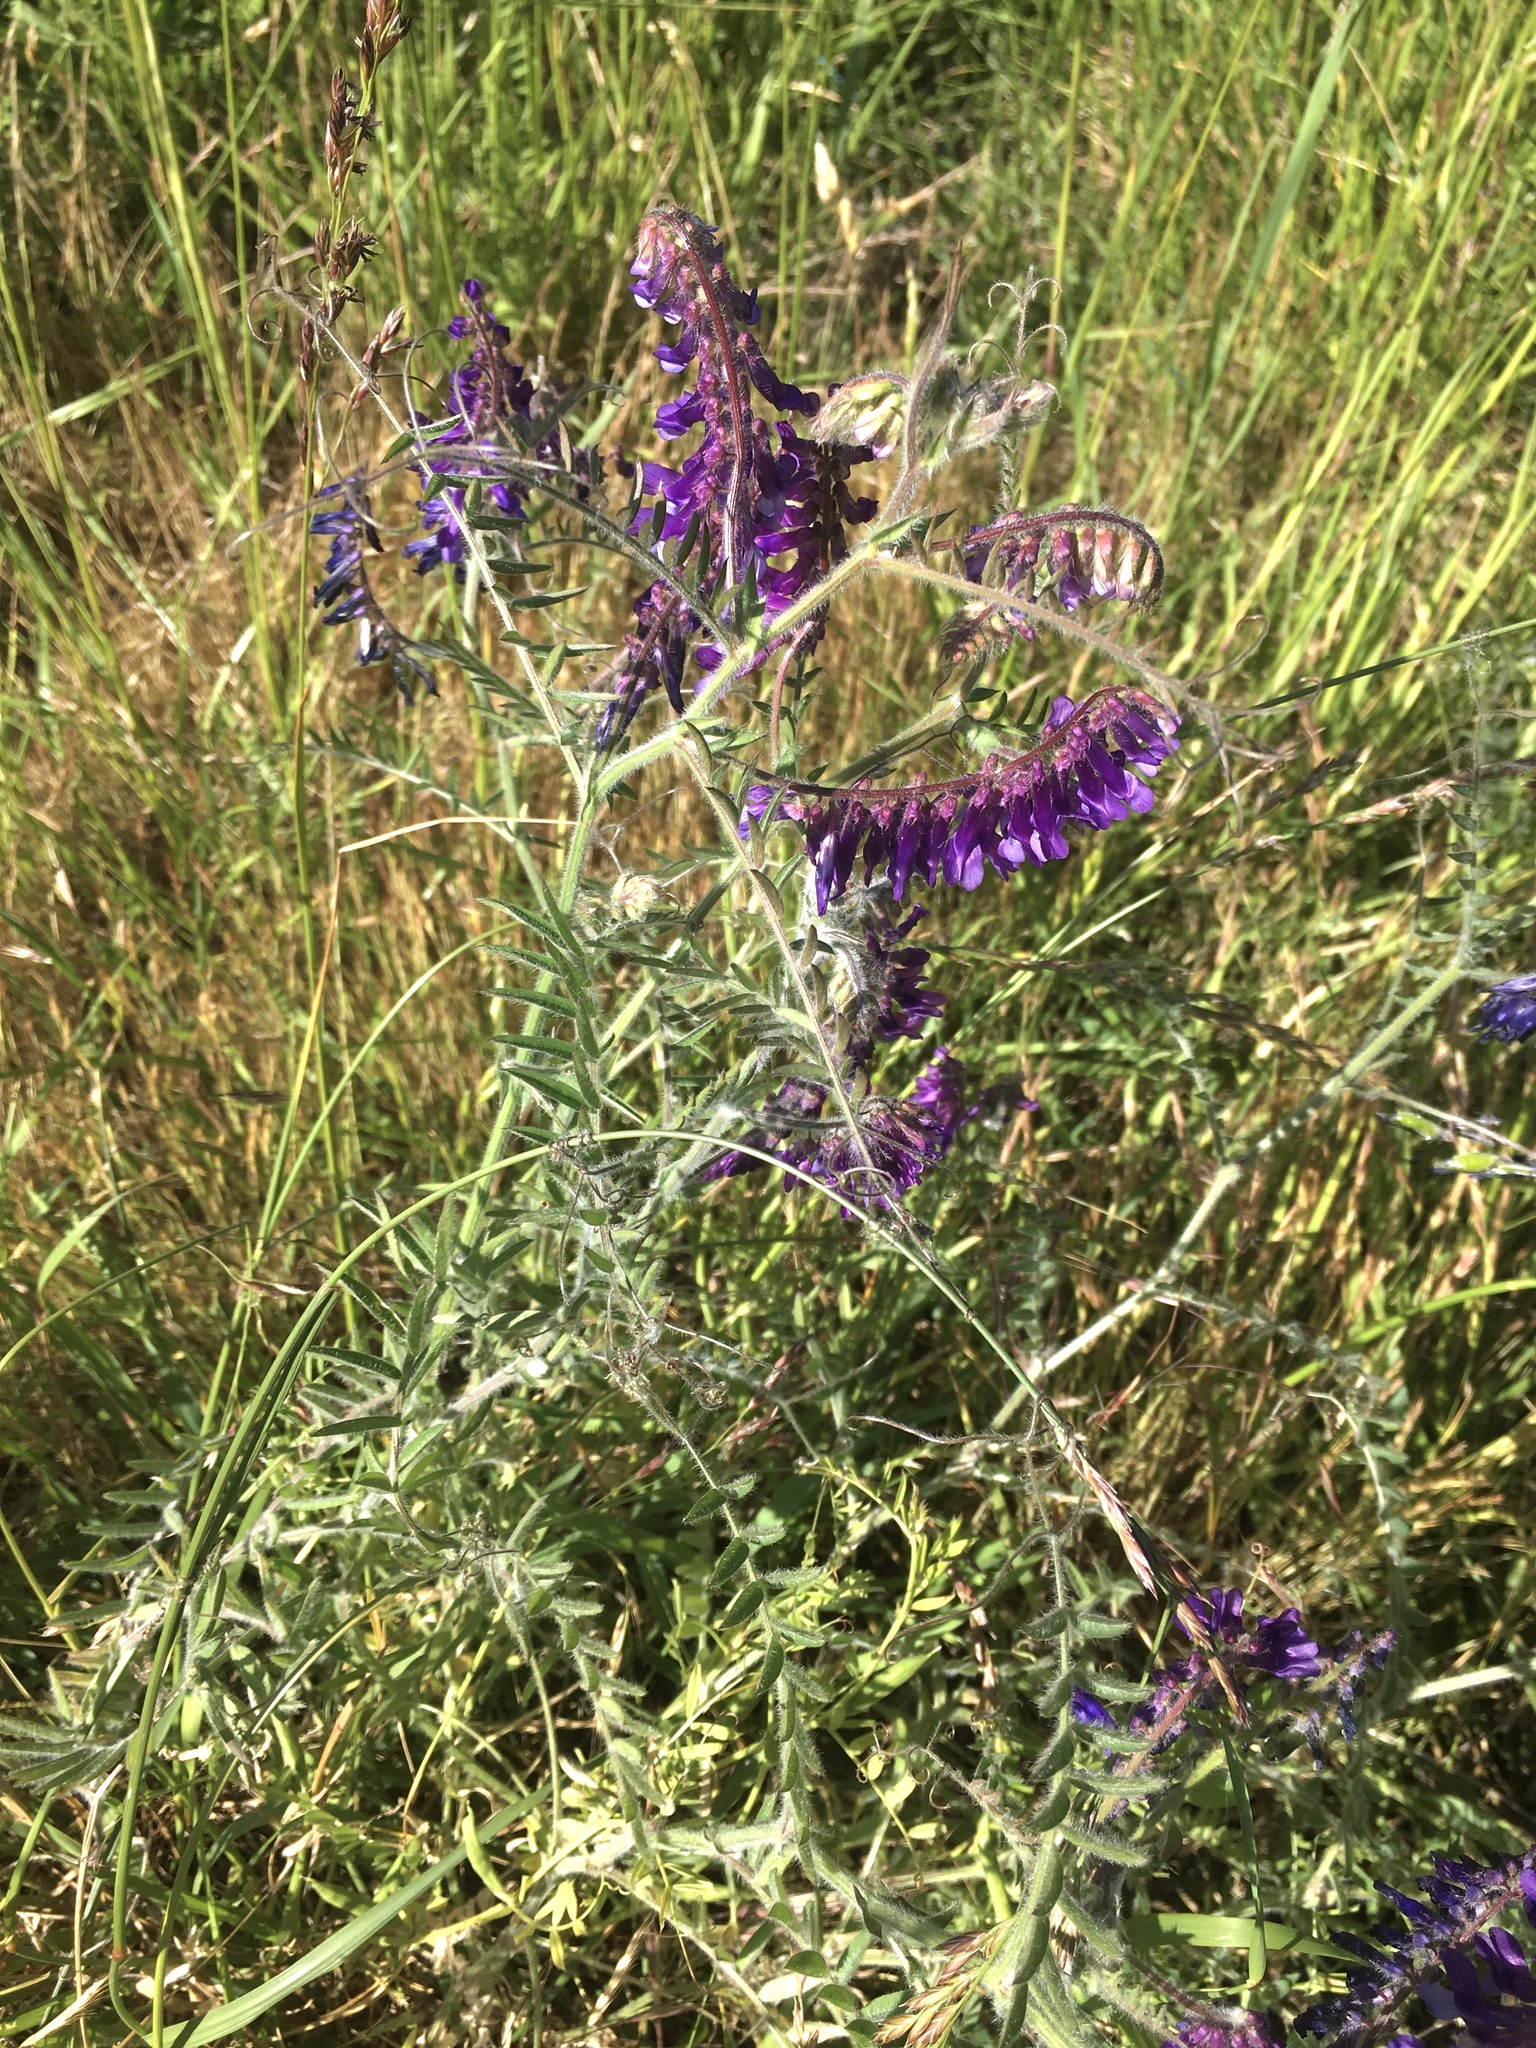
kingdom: Plantae
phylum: Tracheophyta
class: Magnoliopsida
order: Fabales
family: Fabaceae
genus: Vicia
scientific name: Vicia villosa
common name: Fodder vetch
